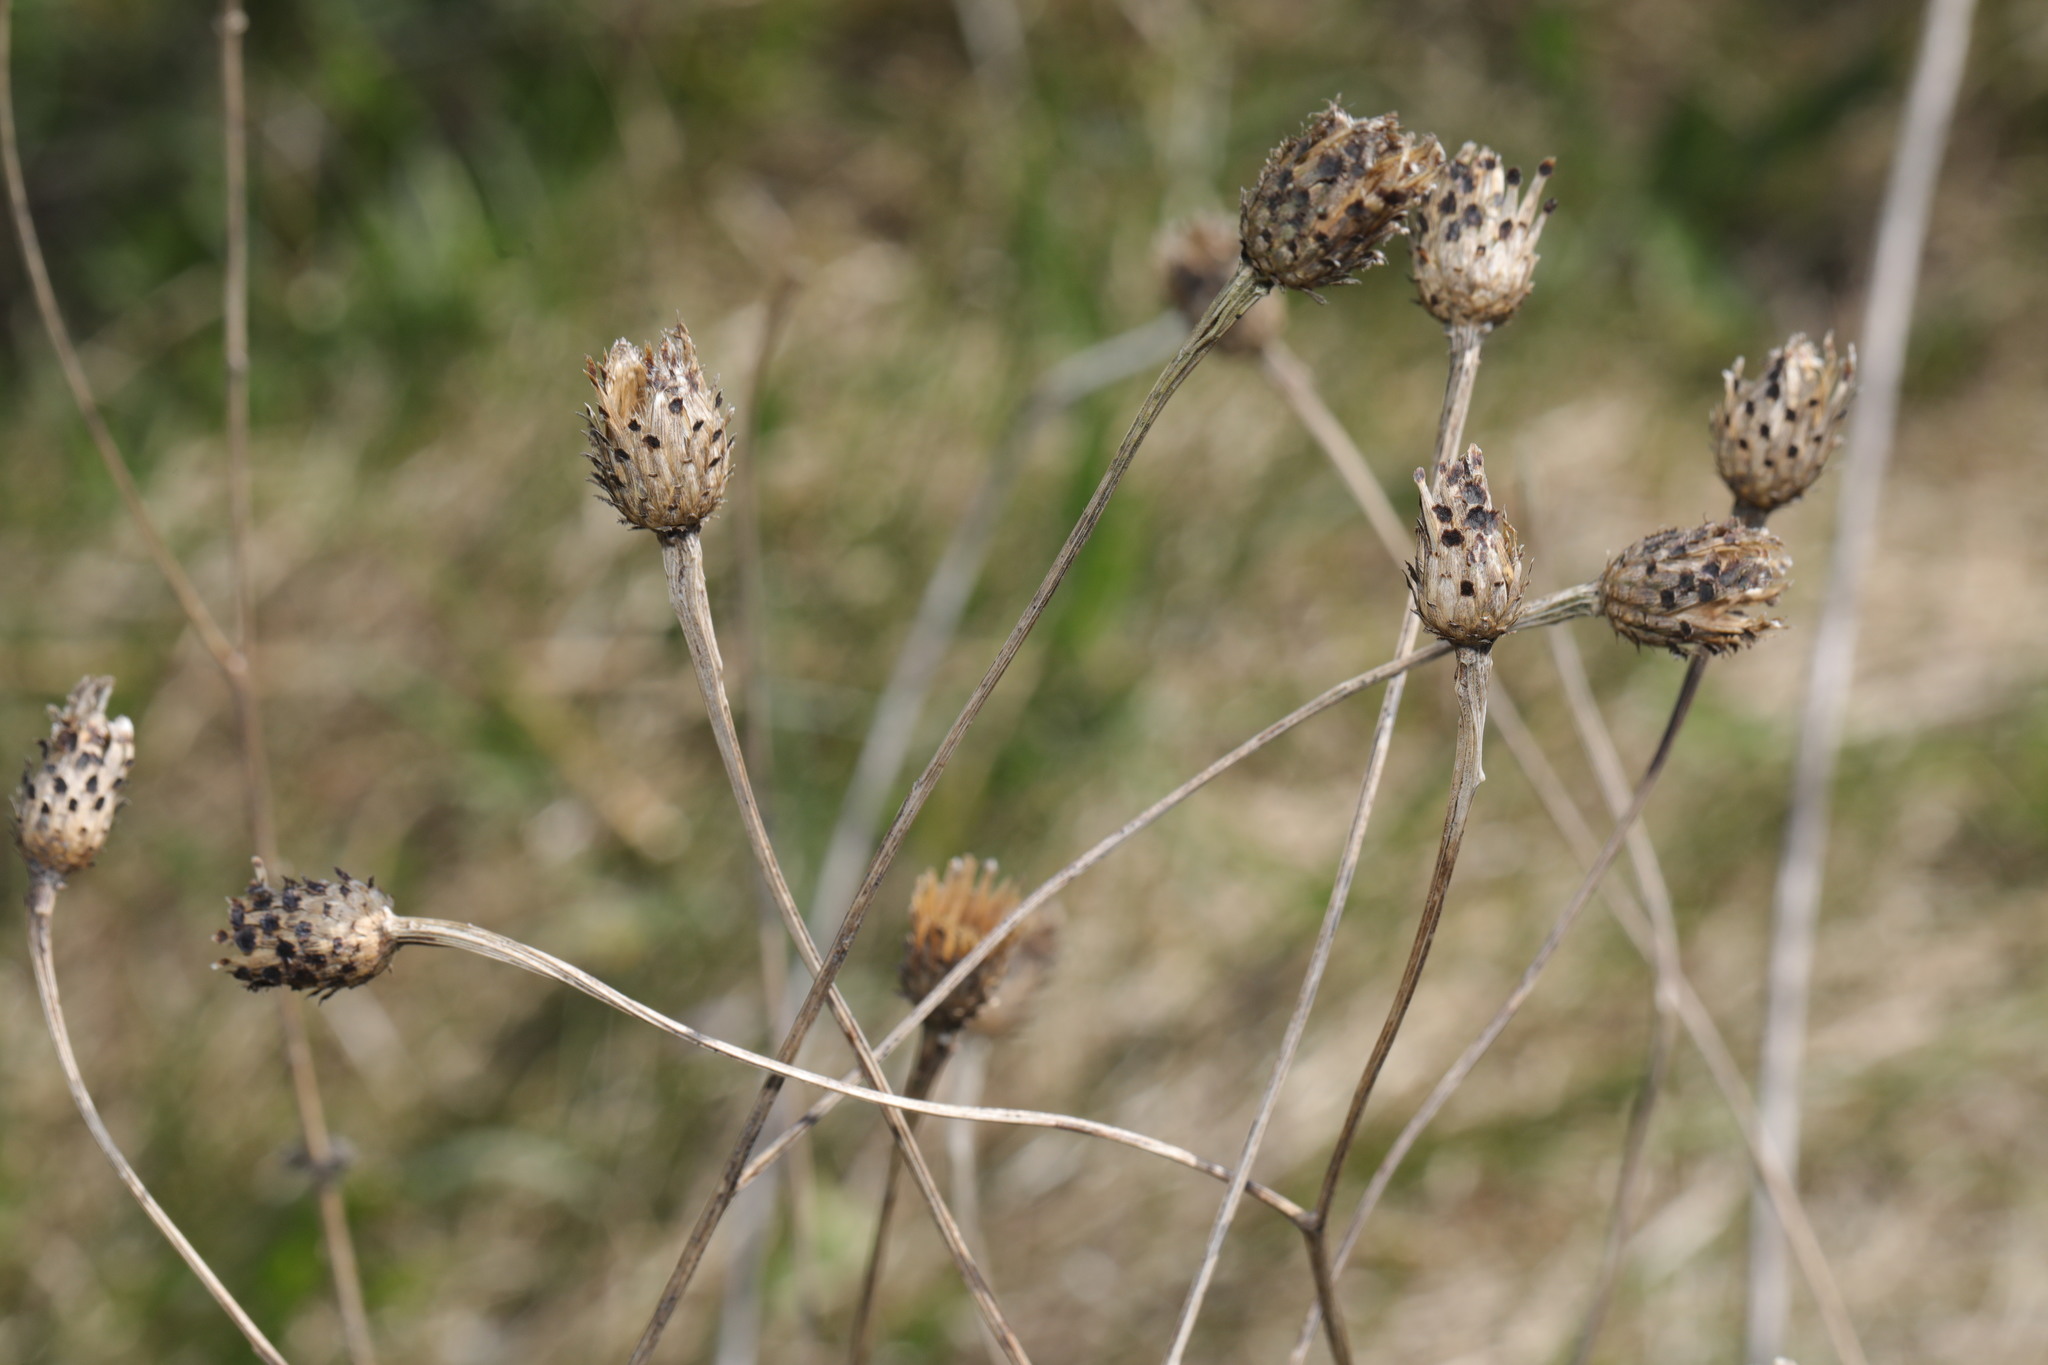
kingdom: Plantae
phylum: Tracheophyta
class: Magnoliopsida
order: Asterales
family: Asteraceae
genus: Centaurea
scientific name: Centaurea nigra
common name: Lesser knapweed
